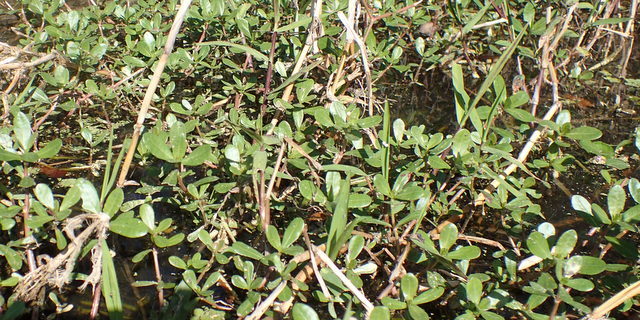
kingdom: Plantae
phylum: Tracheophyta
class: Magnoliopsida
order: Caryophyllales
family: Amaranthaceae
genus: Alternanthera
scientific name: Alternanthera philoxeroides
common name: Alligatorweed
